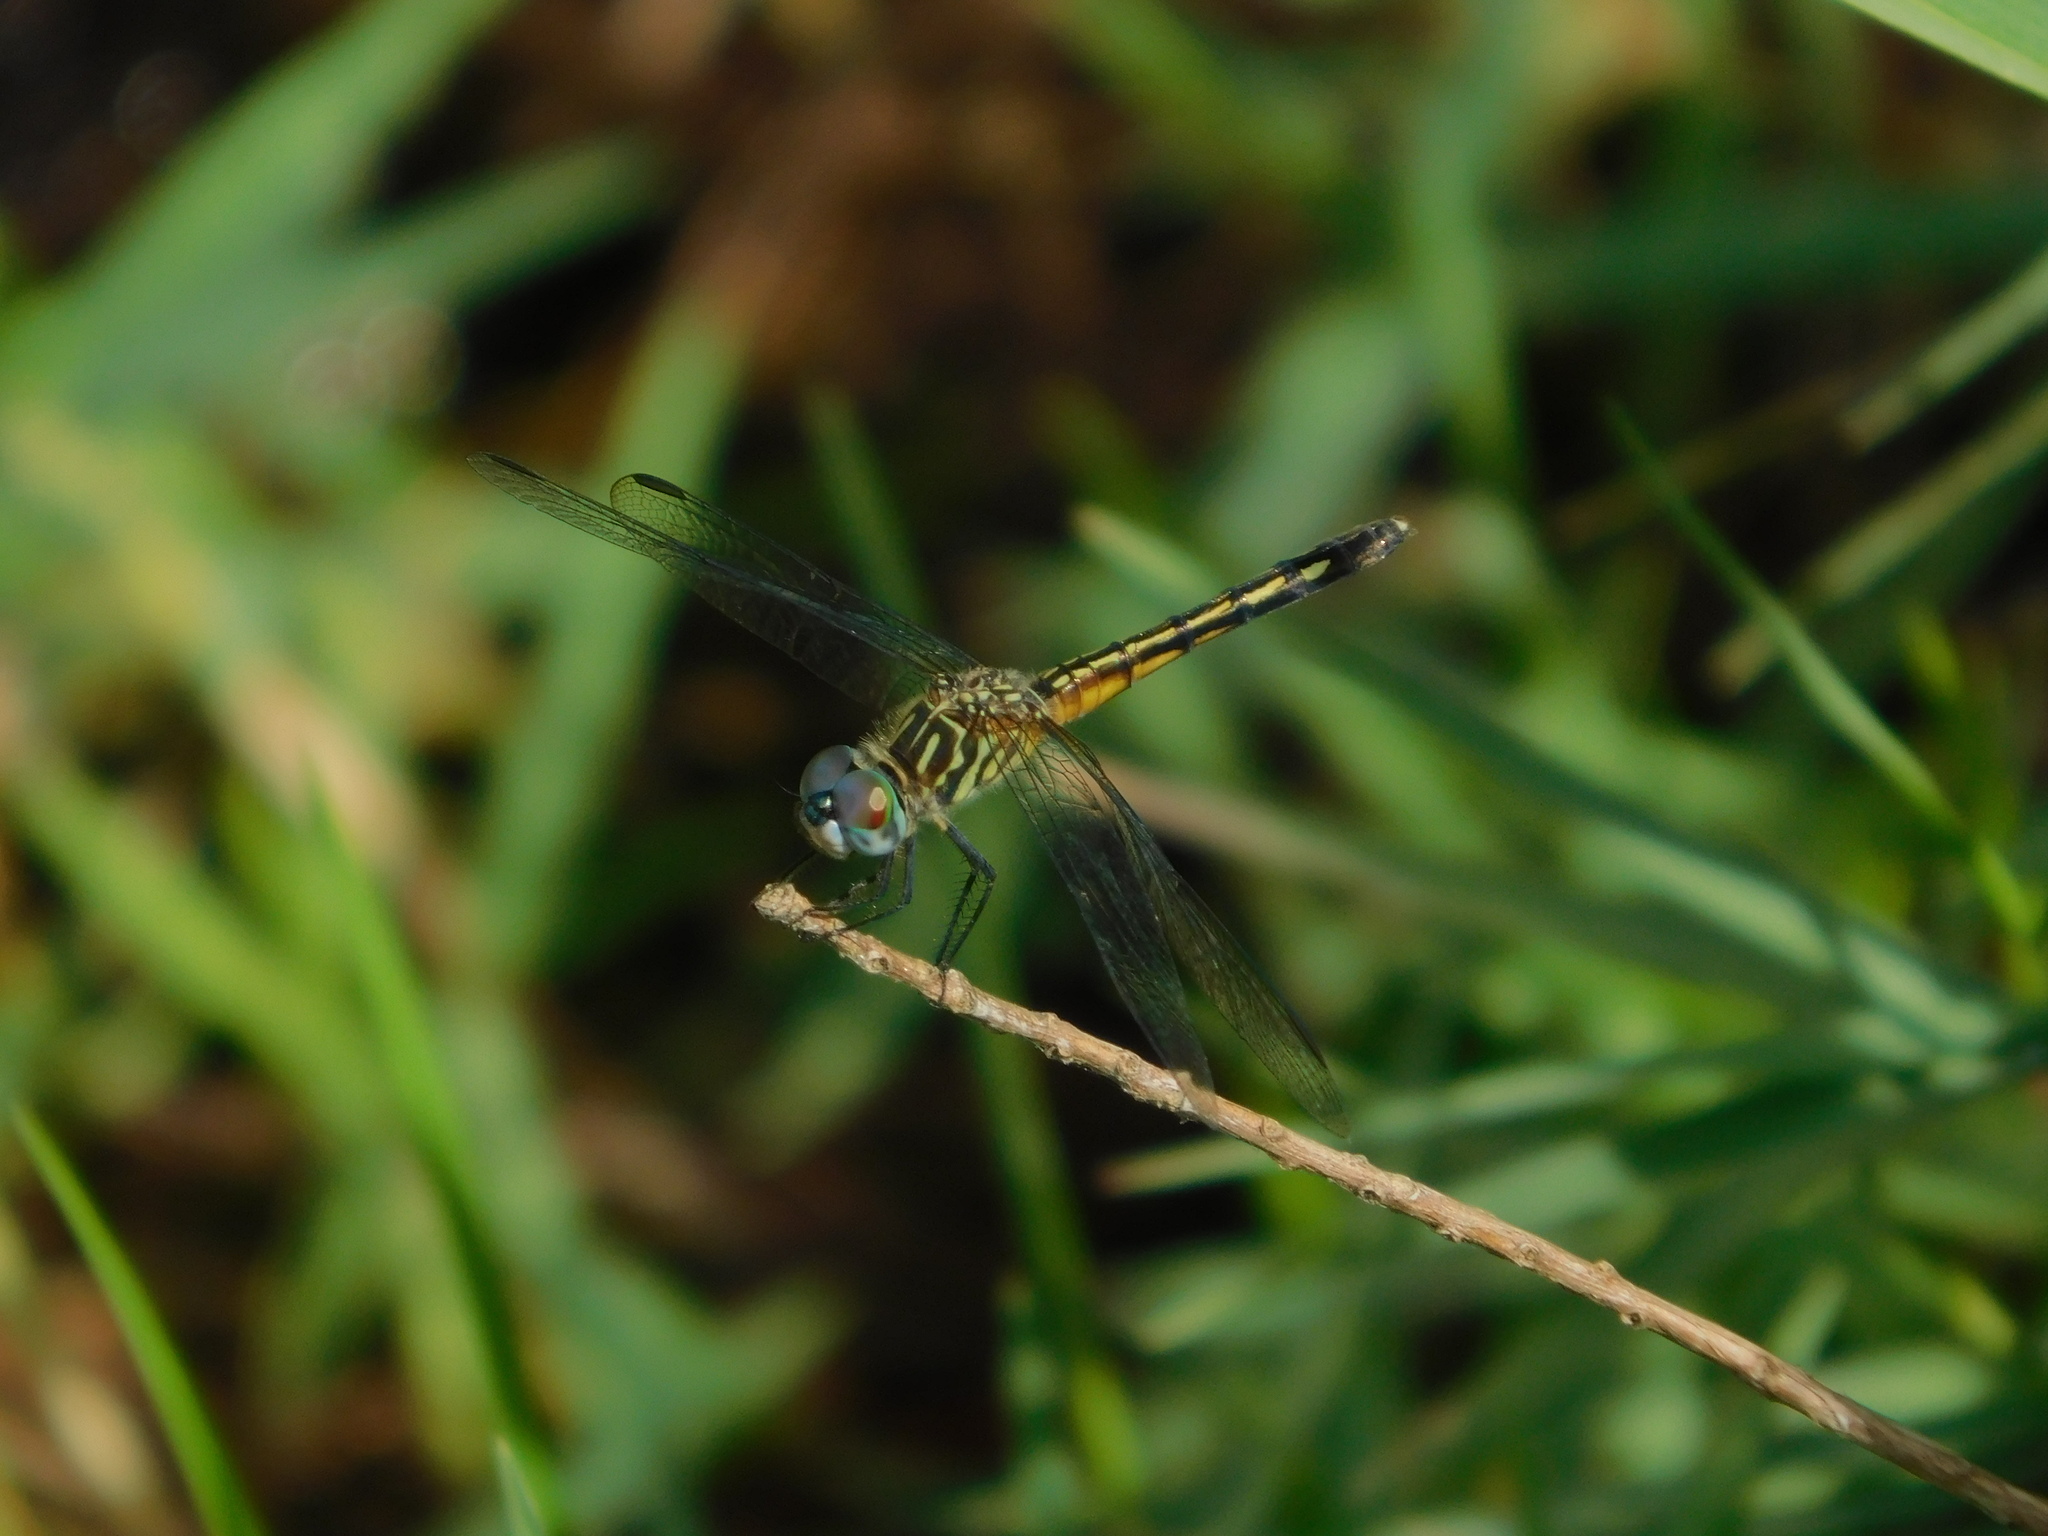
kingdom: Animalia
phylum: Arthropoda
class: Insecta
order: Odonata
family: Libellulidae
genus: Pachydiplax
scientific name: Pachydiplax longipennis
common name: Blue dasher
